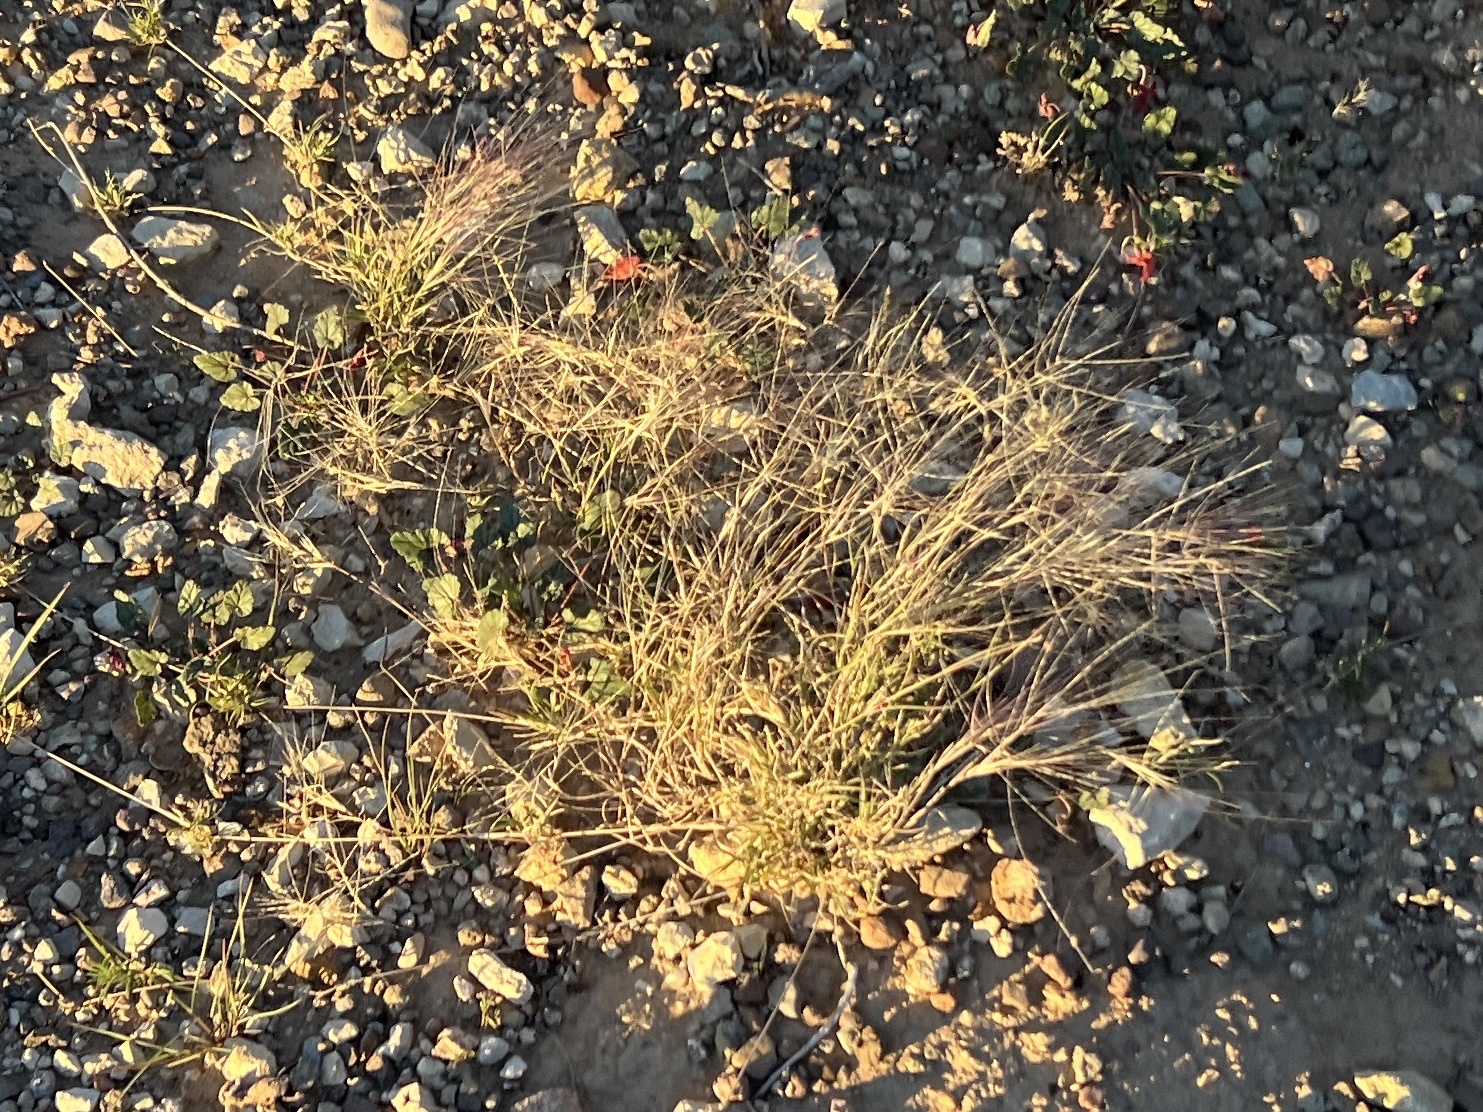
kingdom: Plantae
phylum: Tracheophyta
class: Liliopsida
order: Poales
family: Poaceae
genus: Scleropogon
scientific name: Scleropogon brevifolius
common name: Burro grass
